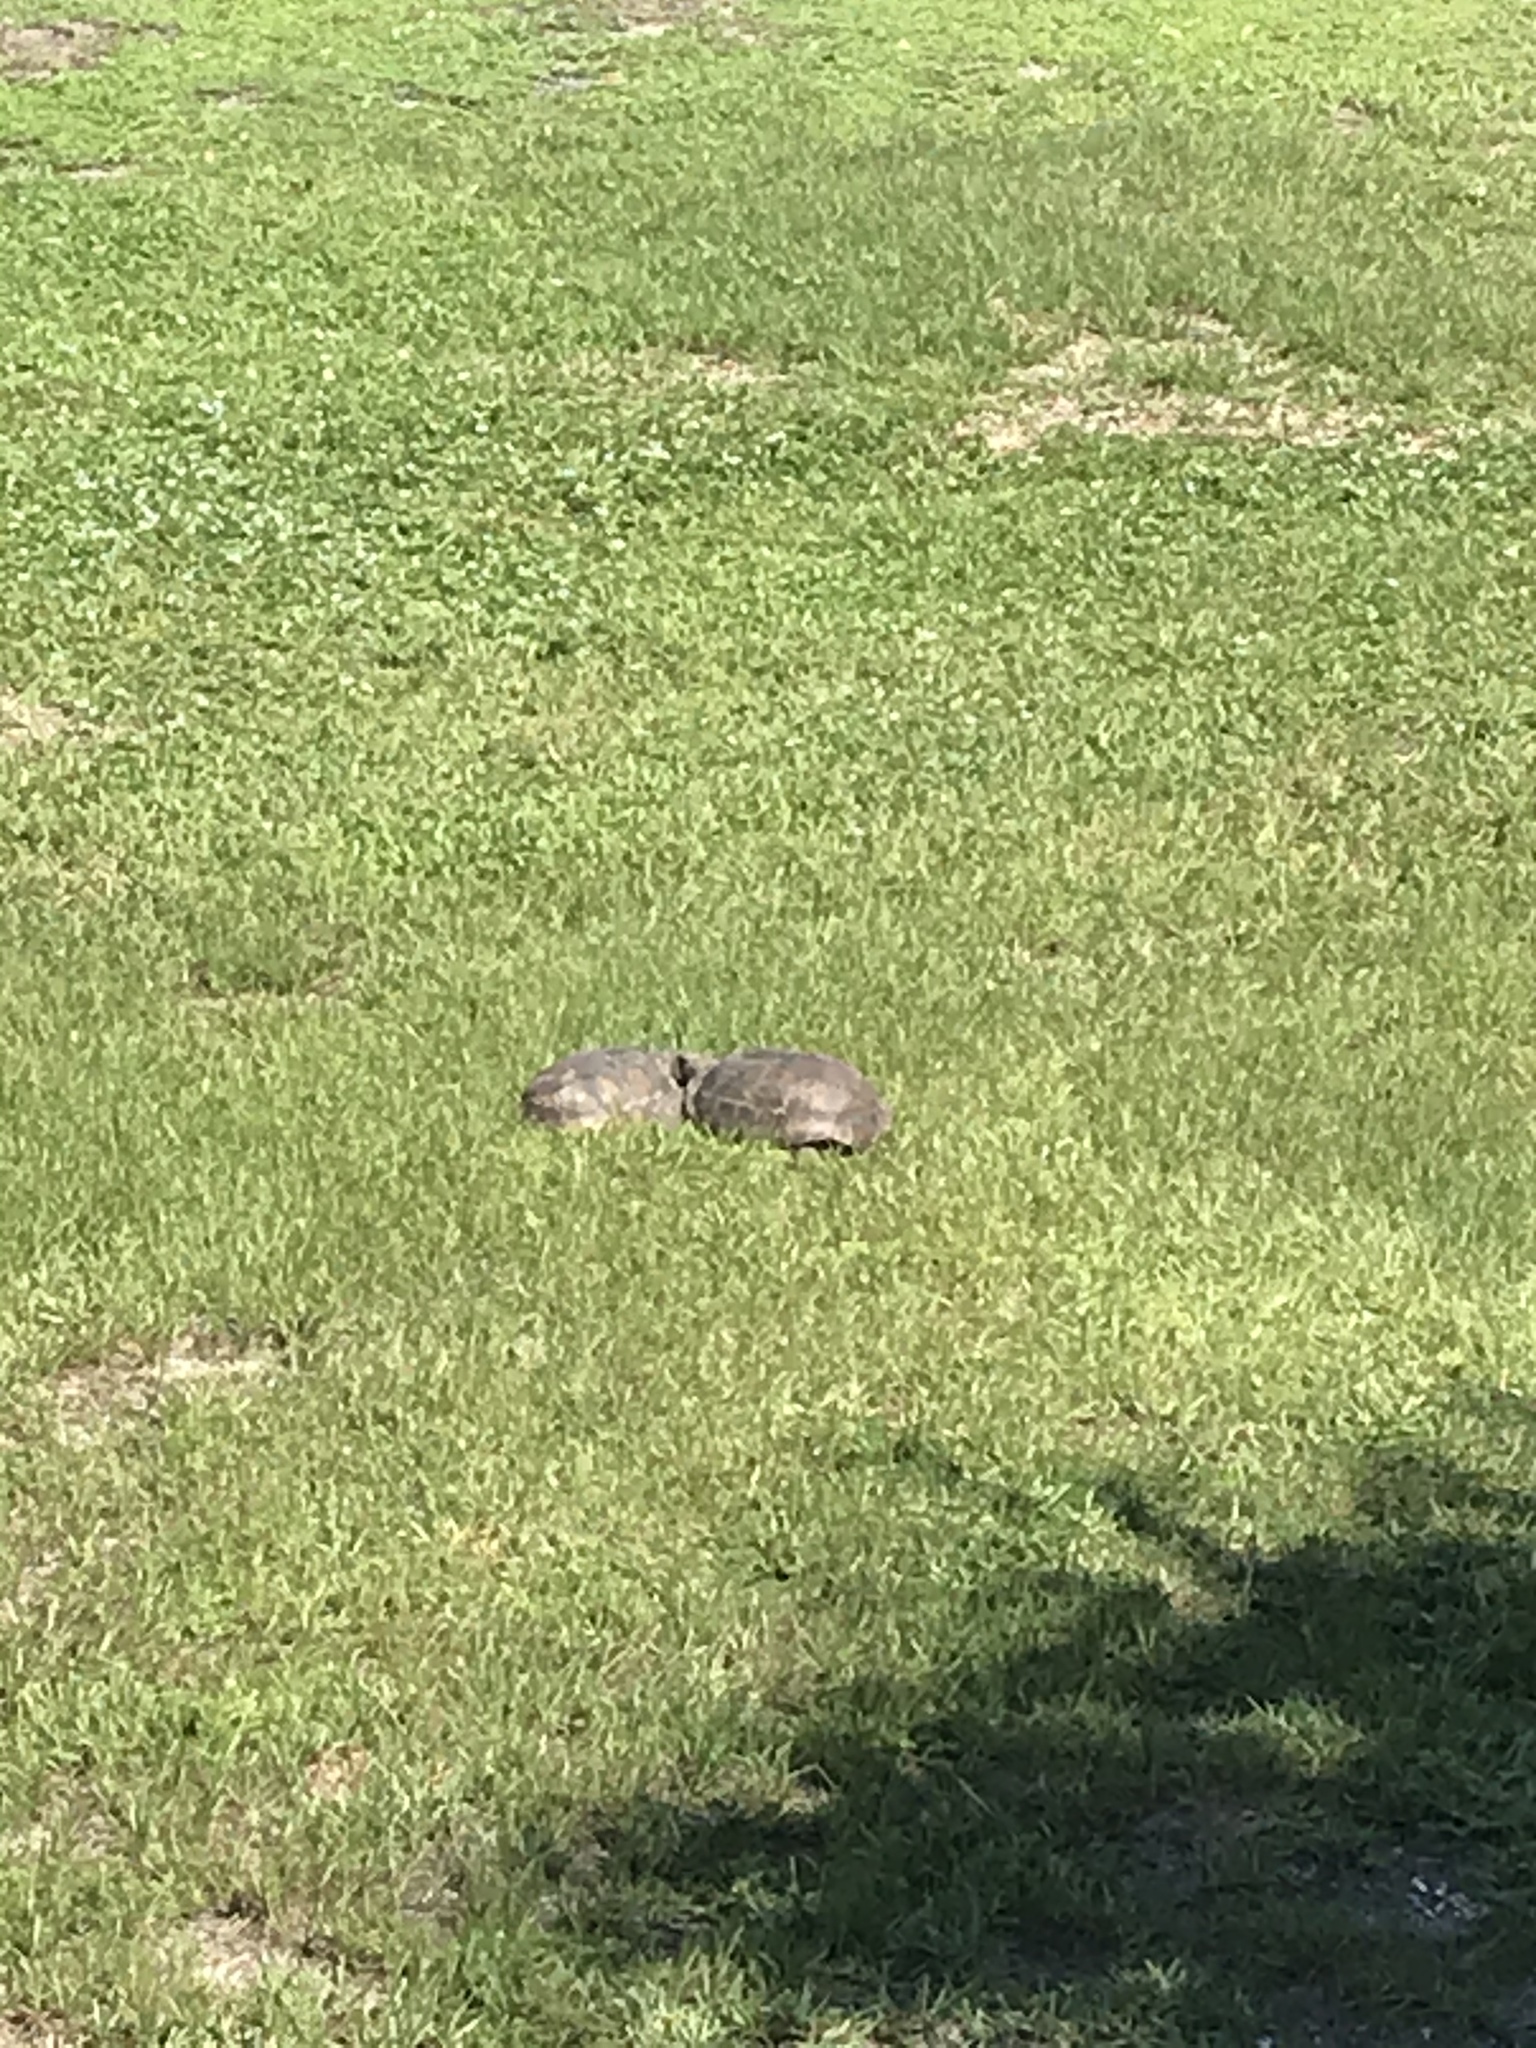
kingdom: Animalia
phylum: Chordata
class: Testudines
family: Testudinidae
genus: Gopherus
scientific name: Gopherus polyphemus
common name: Florida gopher tortoise
